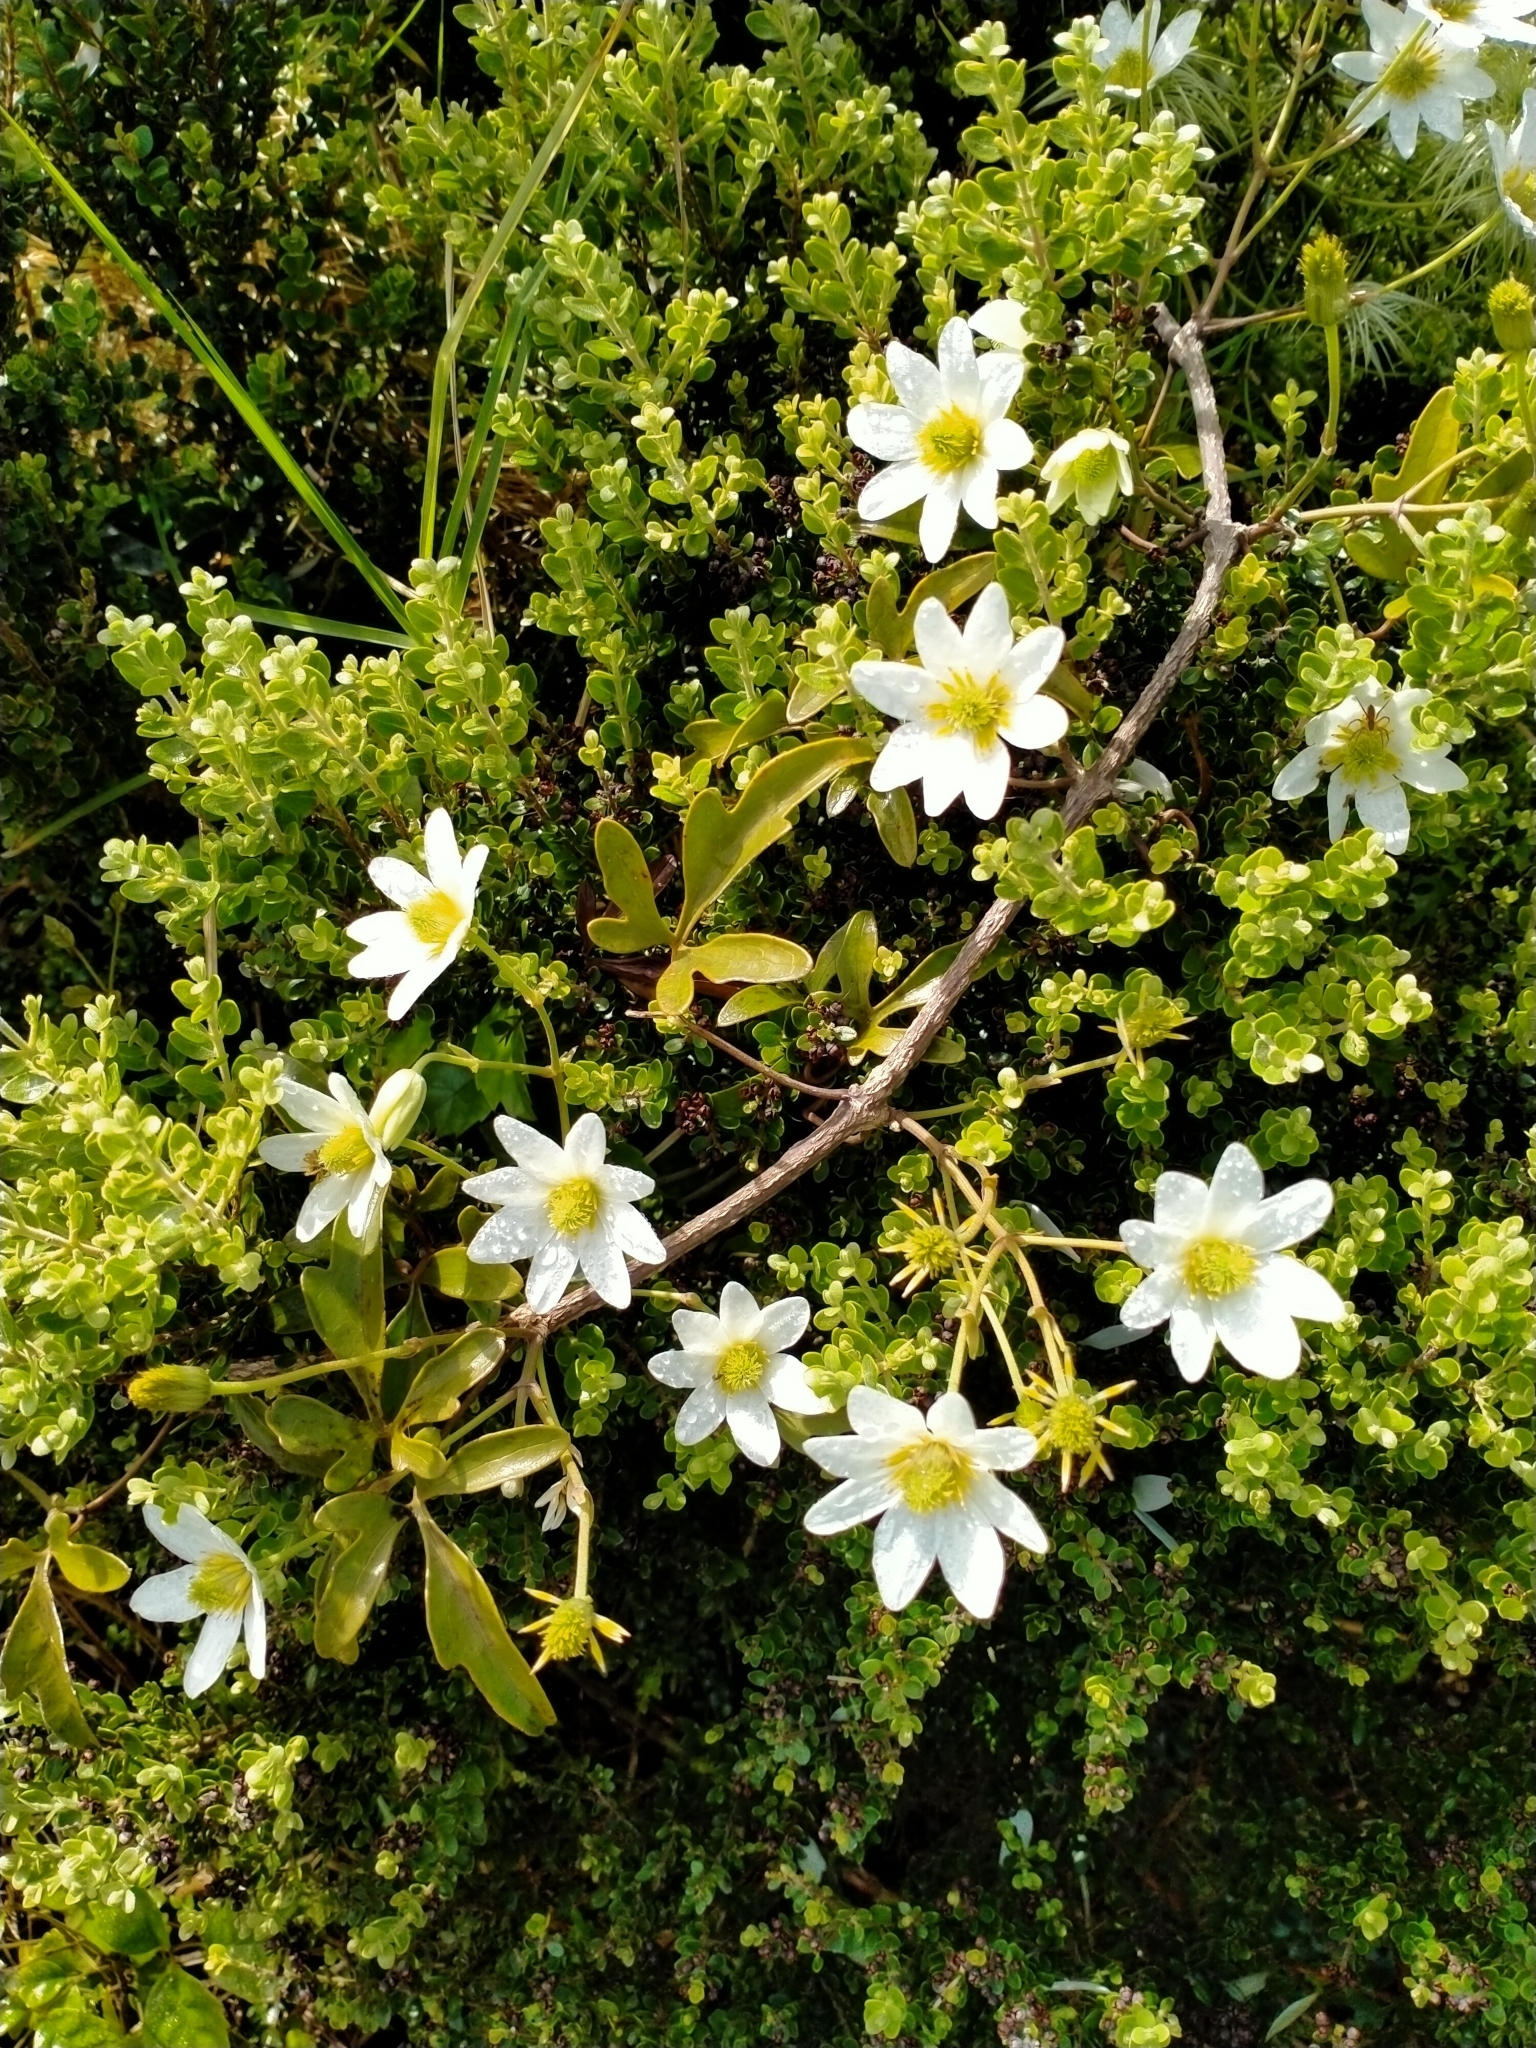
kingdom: Plantae
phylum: Tracheophyta
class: Magnoliopsida
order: Ranunculales
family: Ranunculaceae
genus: Clematis
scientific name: Clematis paniculata
